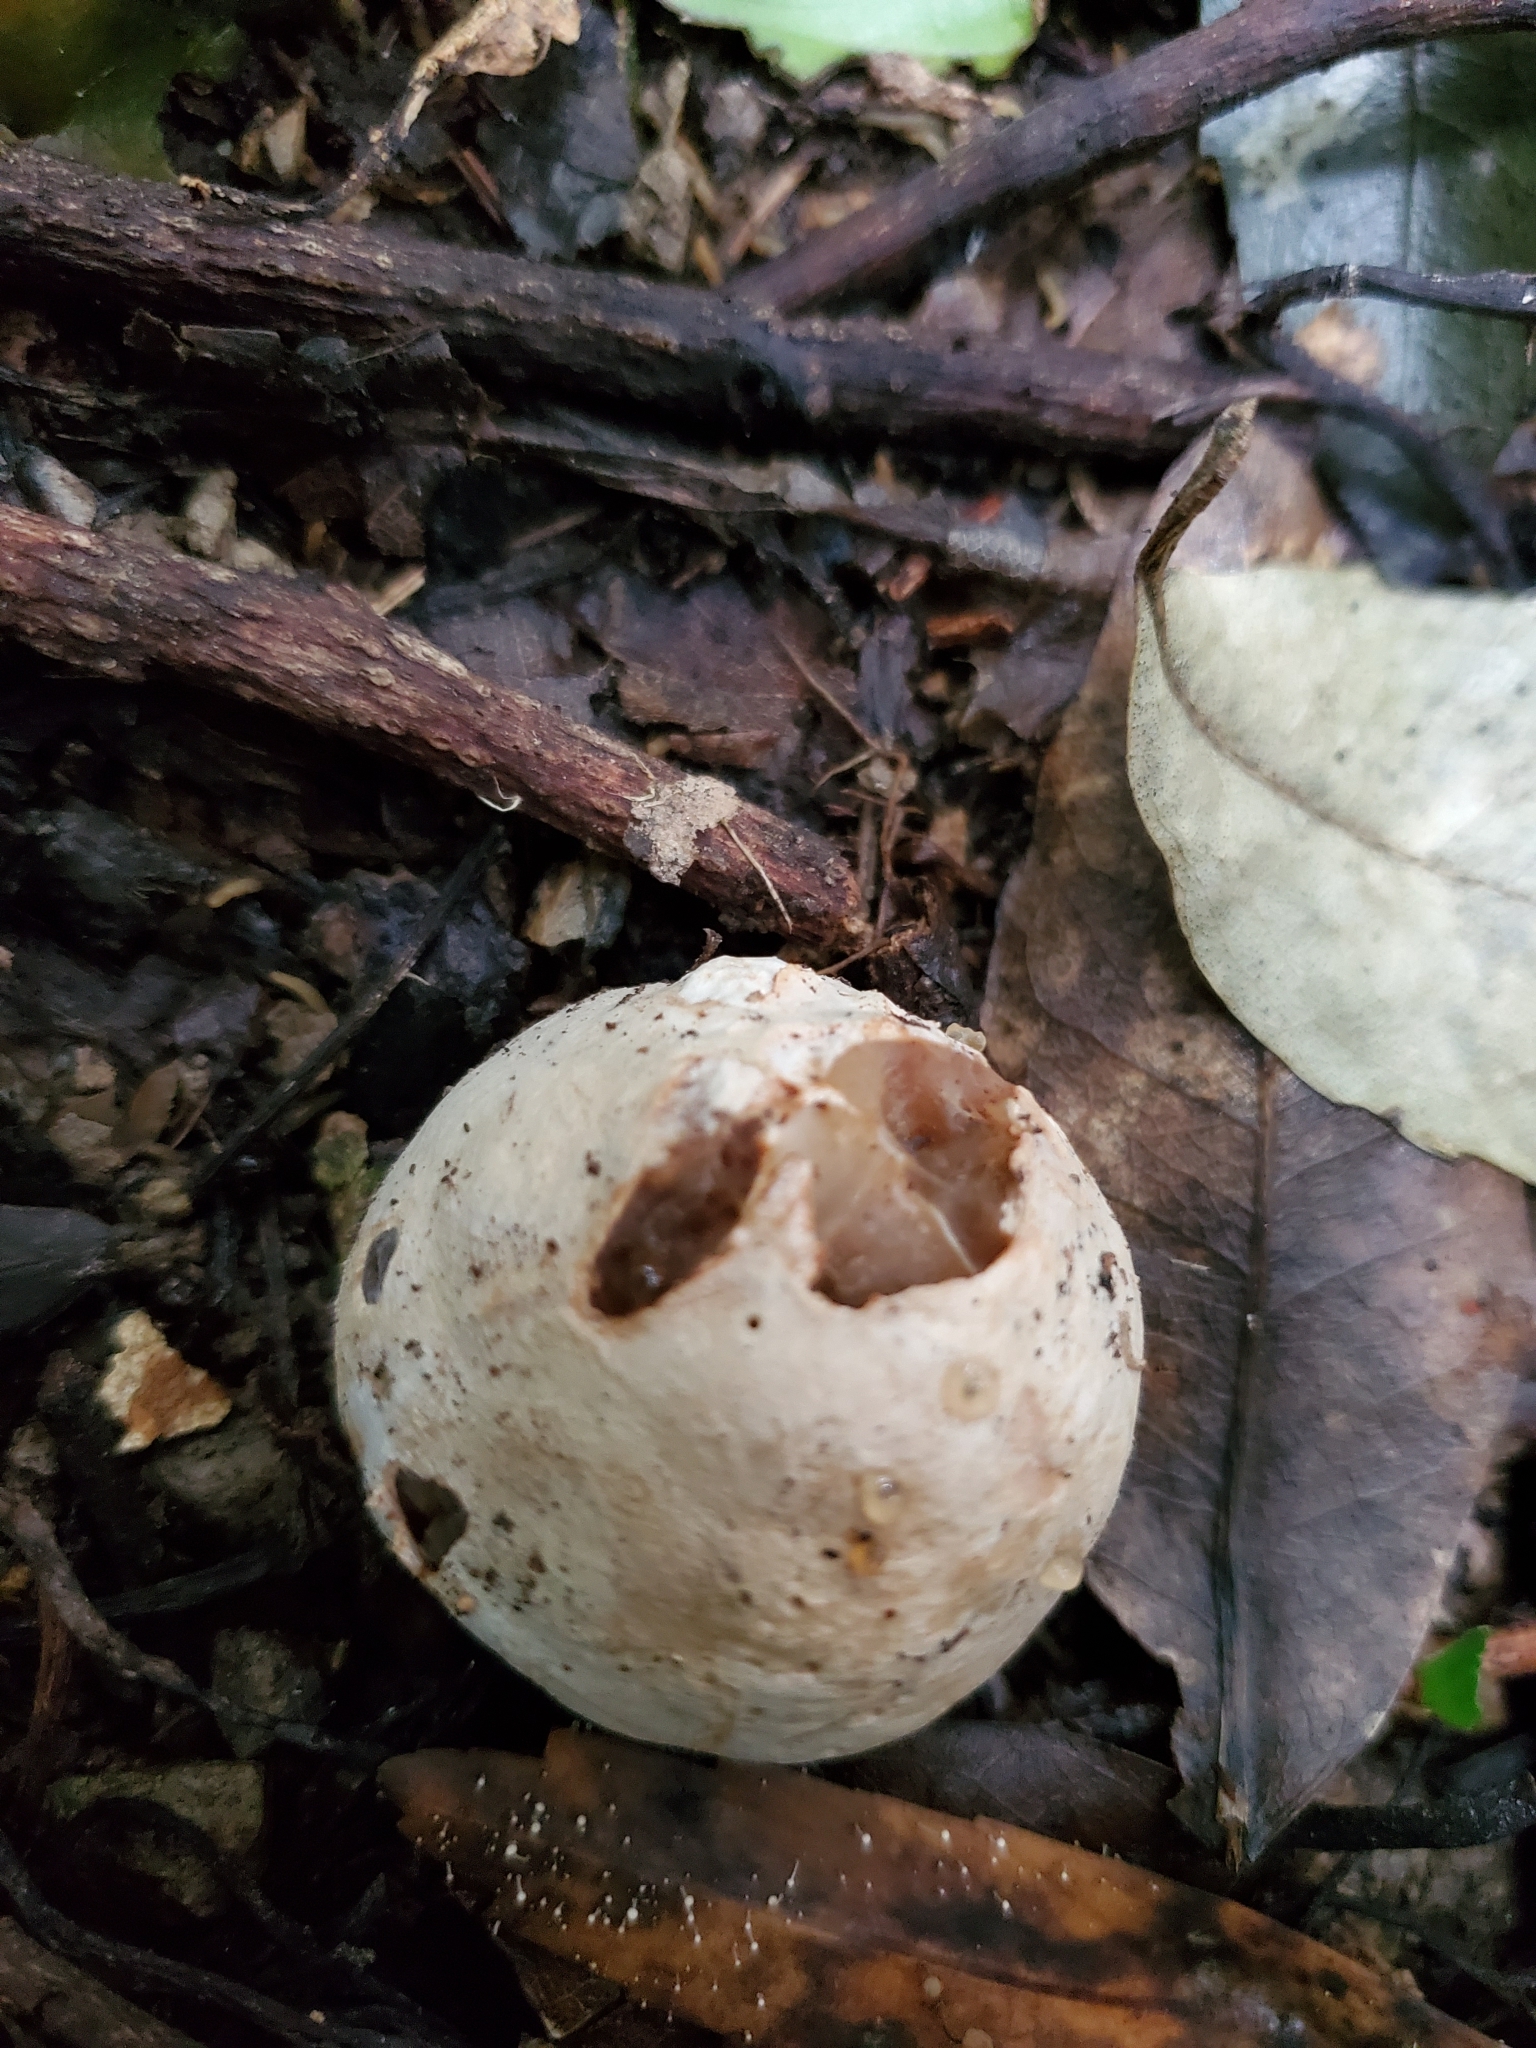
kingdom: Fungi
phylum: Basidiomycota
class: Agaricomycetes
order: Phallales
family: Phallaceae
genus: Ileodictyon
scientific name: Ileodictyon cibarium
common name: Basket fungus
